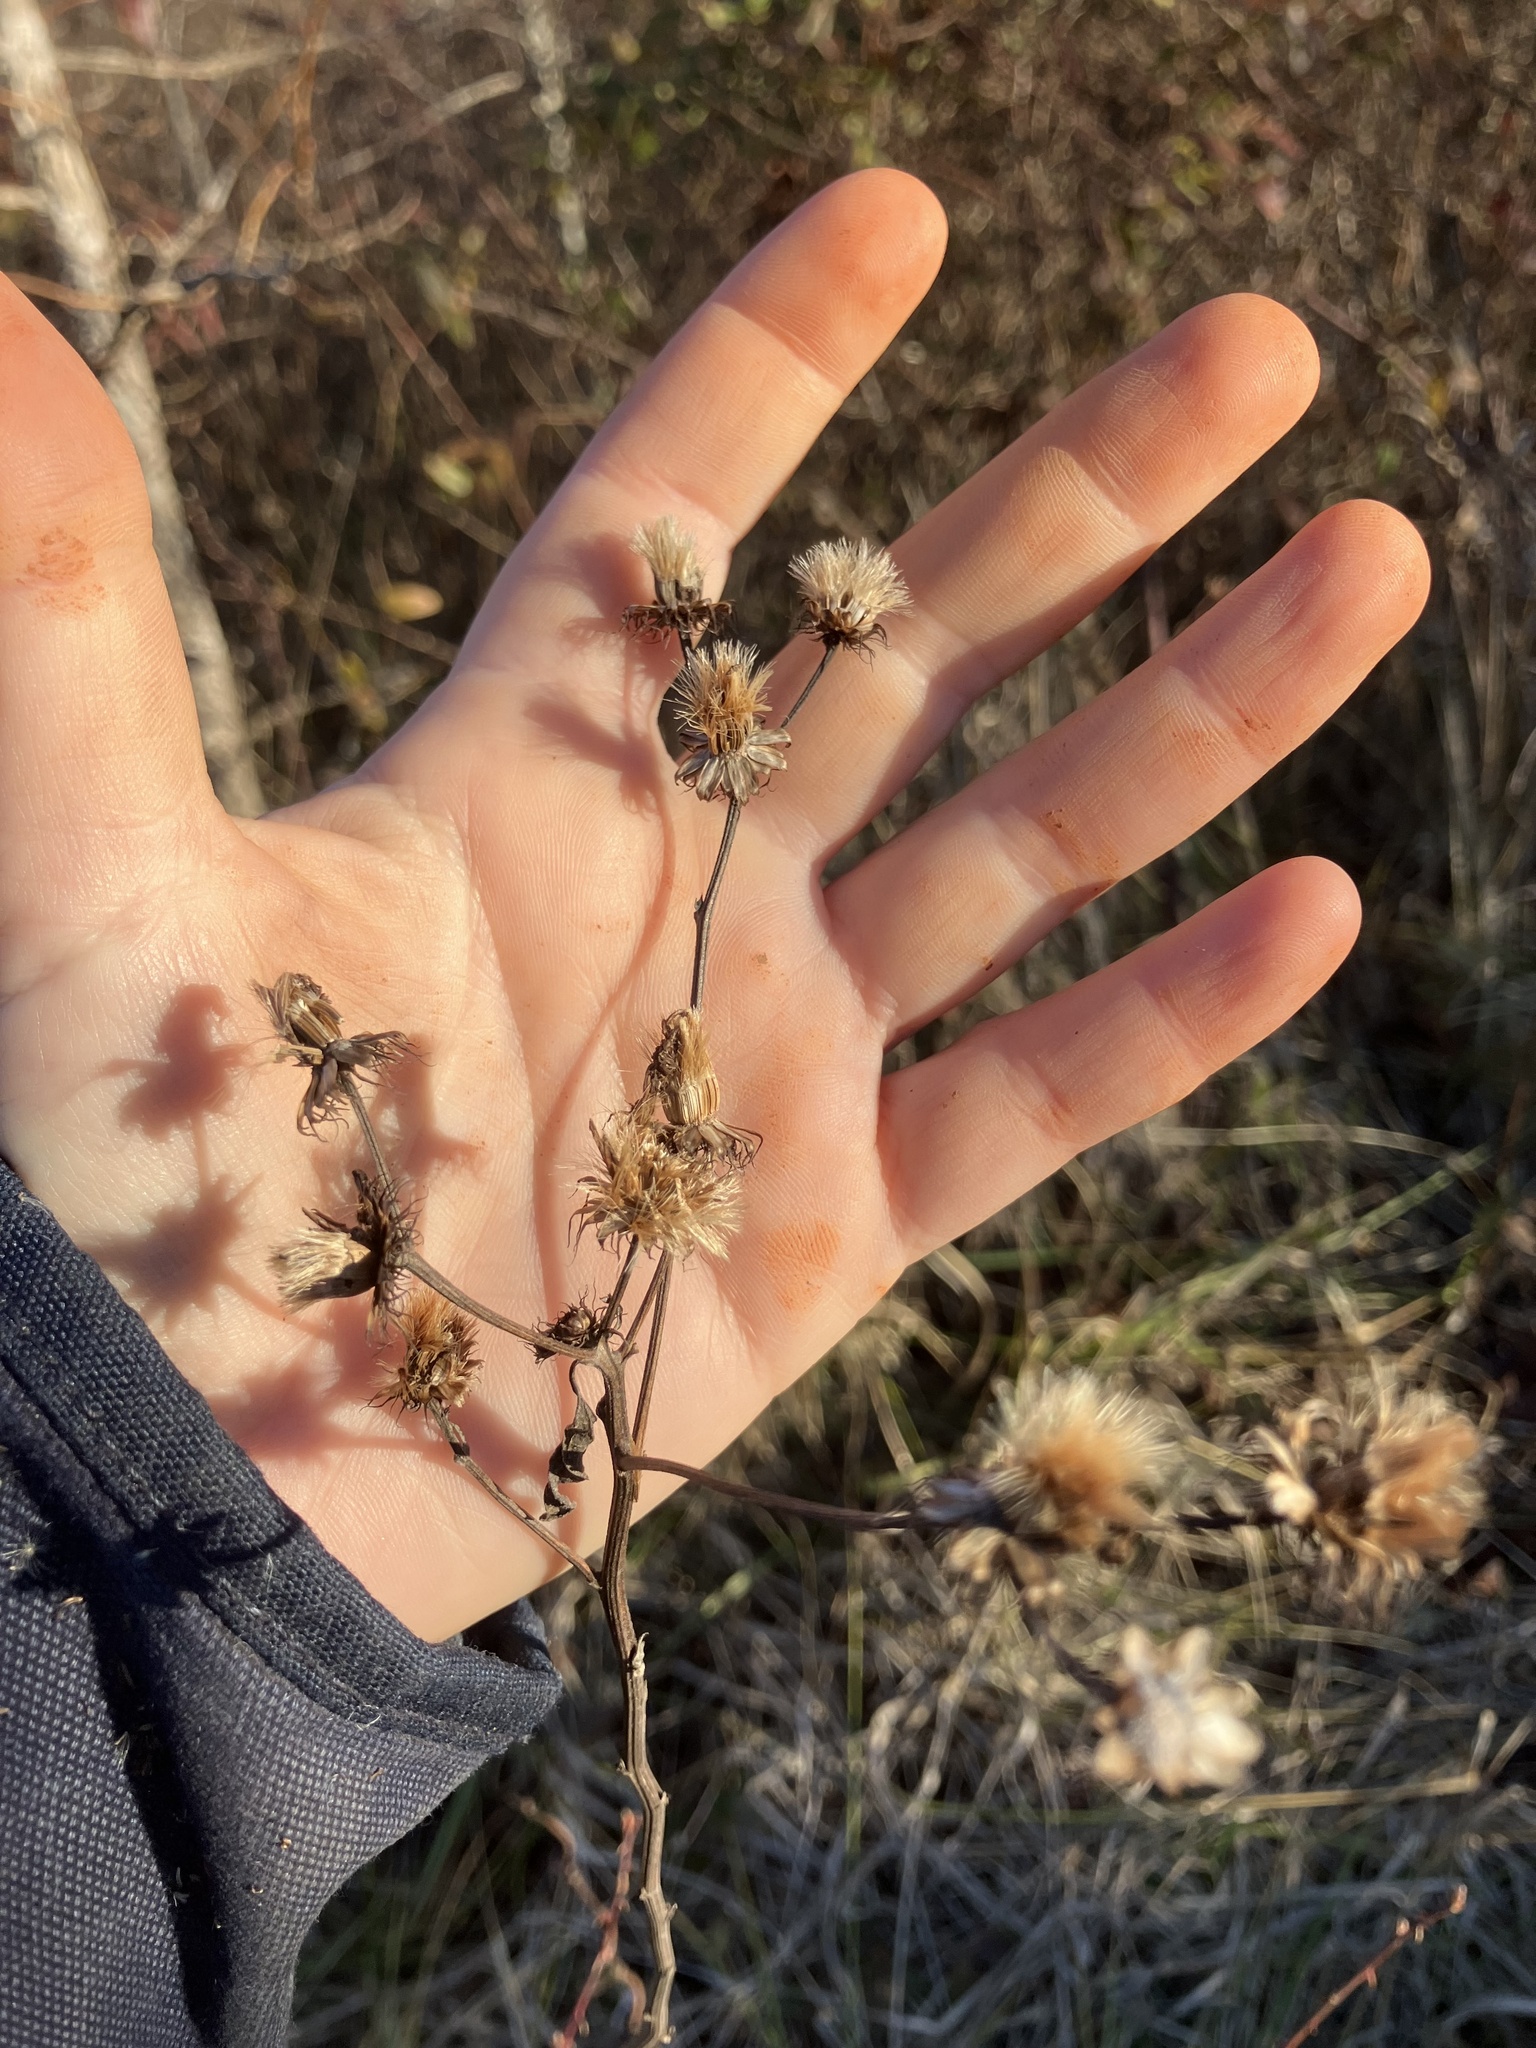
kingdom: Plantae
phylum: Tracheophyta
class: Magnoliopsida
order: Asterales
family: Asteraceae
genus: Vernonia
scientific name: Vernonia noveboracensis
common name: New york ironweed
